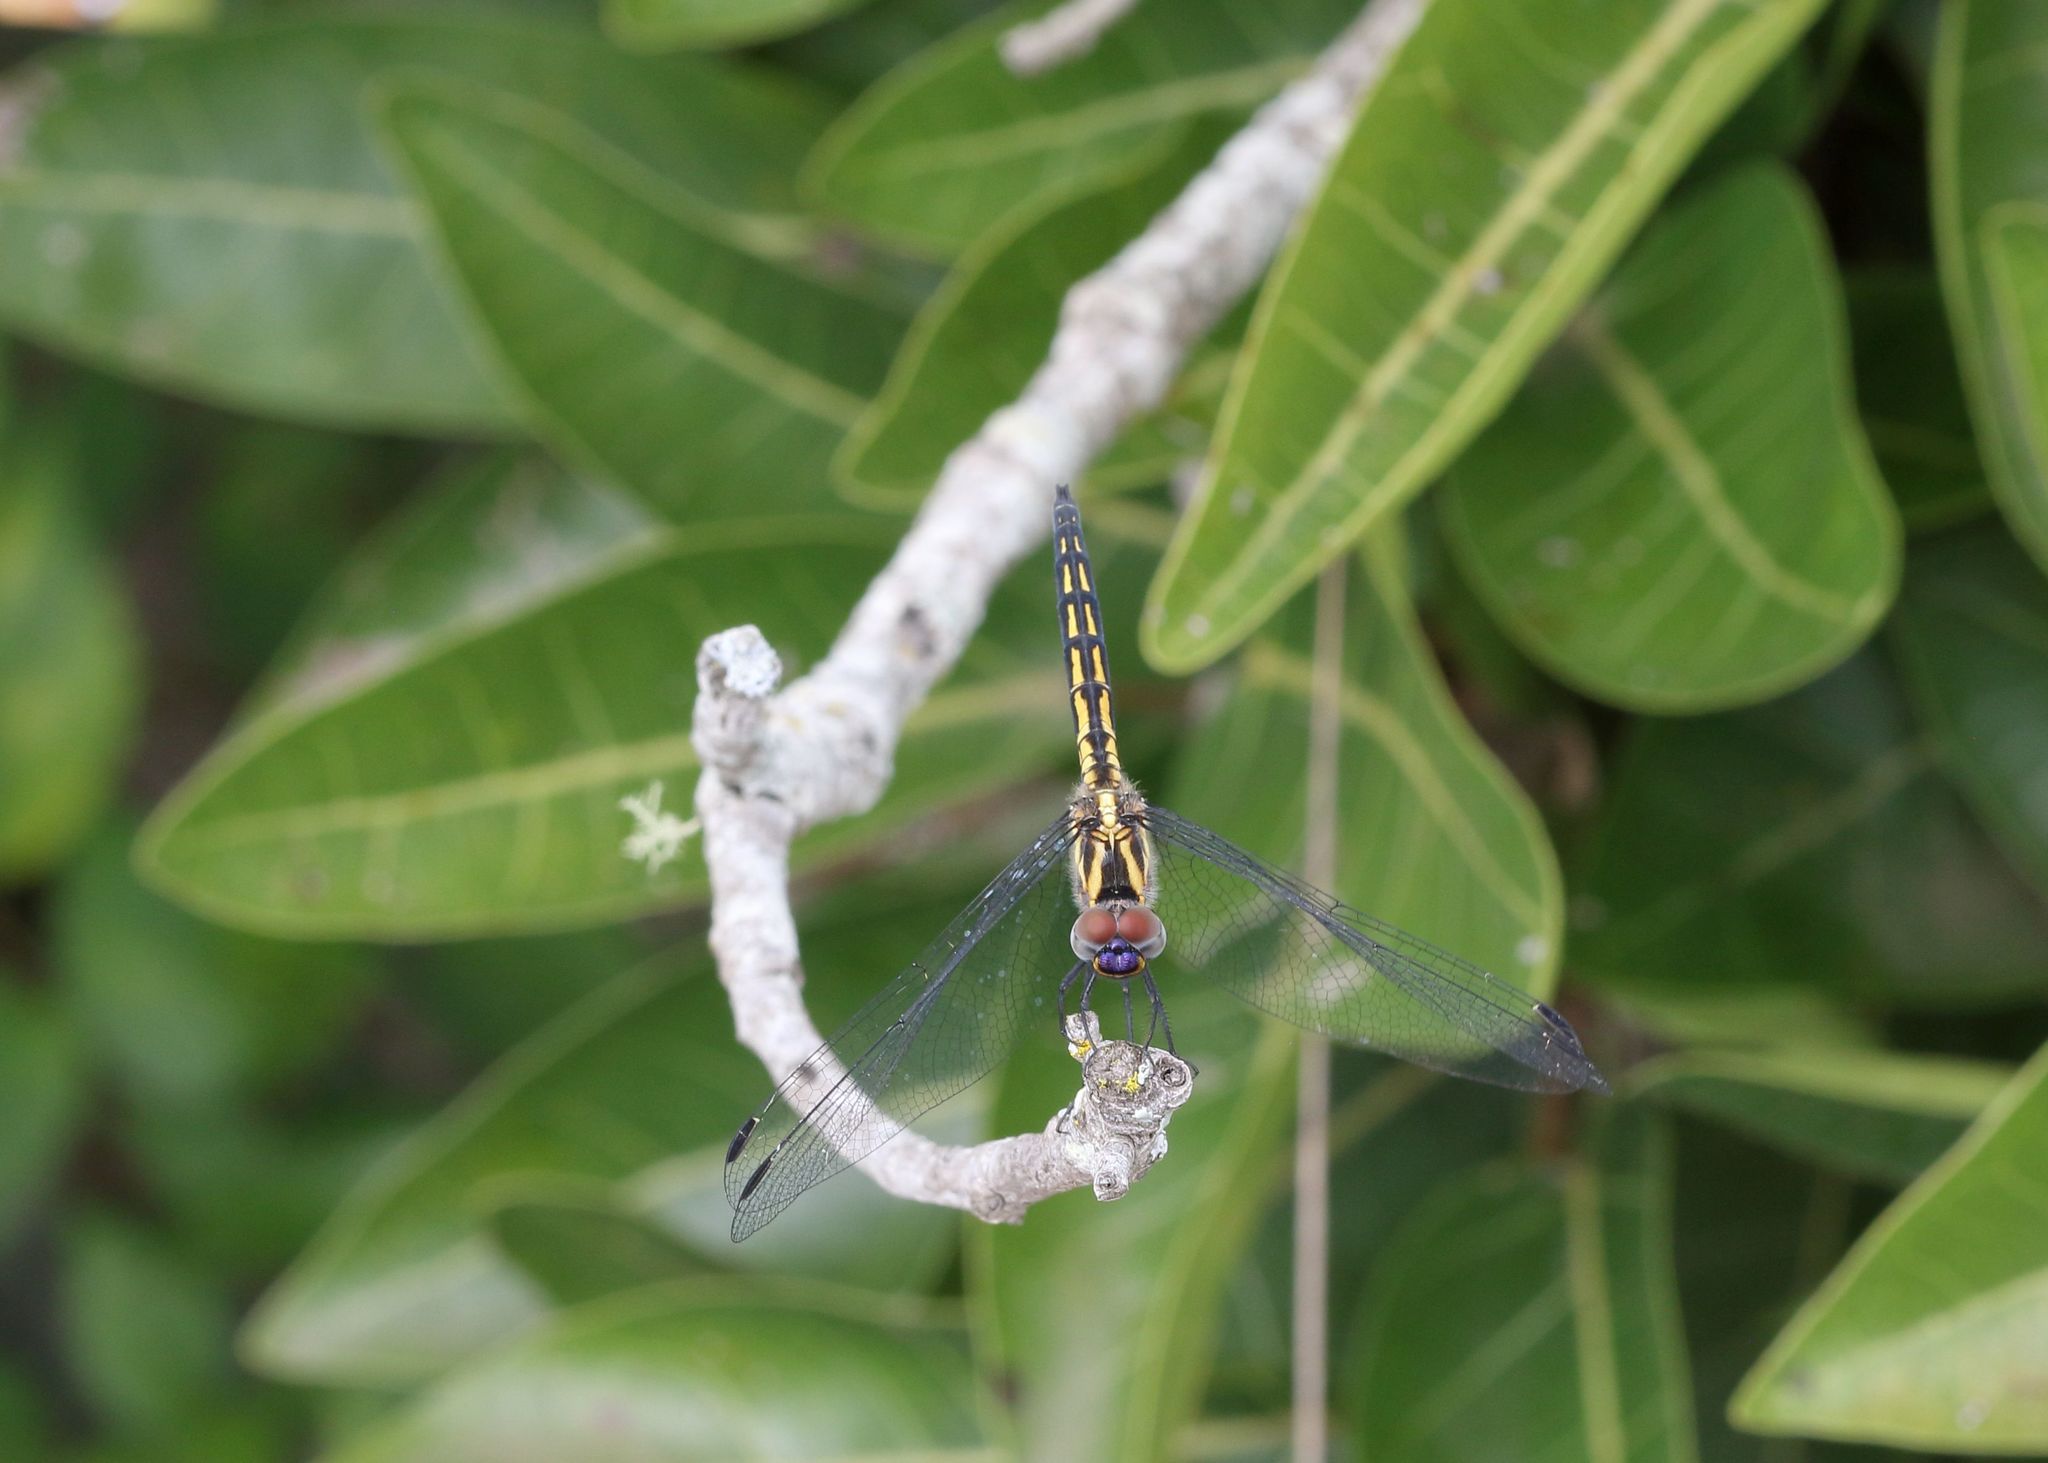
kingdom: Animalia
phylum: Arthropoda
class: Insecta
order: Odonata
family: Libellulidae
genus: Trithemis
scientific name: Trithemis stictica
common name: Jaunty dropwing
